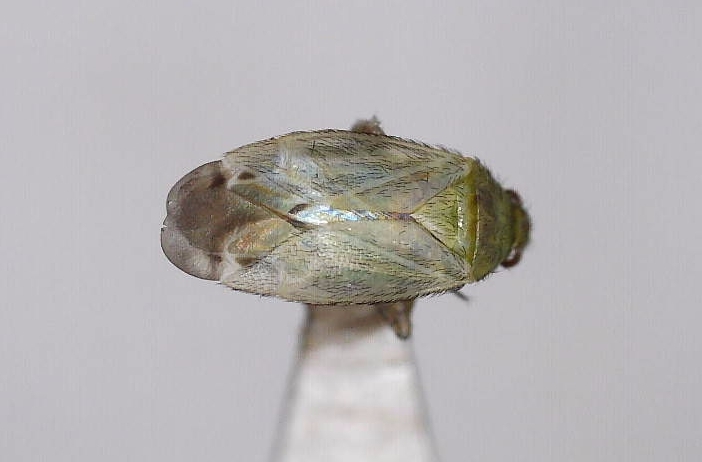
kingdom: Animalia
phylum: Arthropoda
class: Insecta
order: Hemiptera
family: Miridae
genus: Plagiognathus
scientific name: Plagiognathus chrysanthemi
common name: Plant bug
